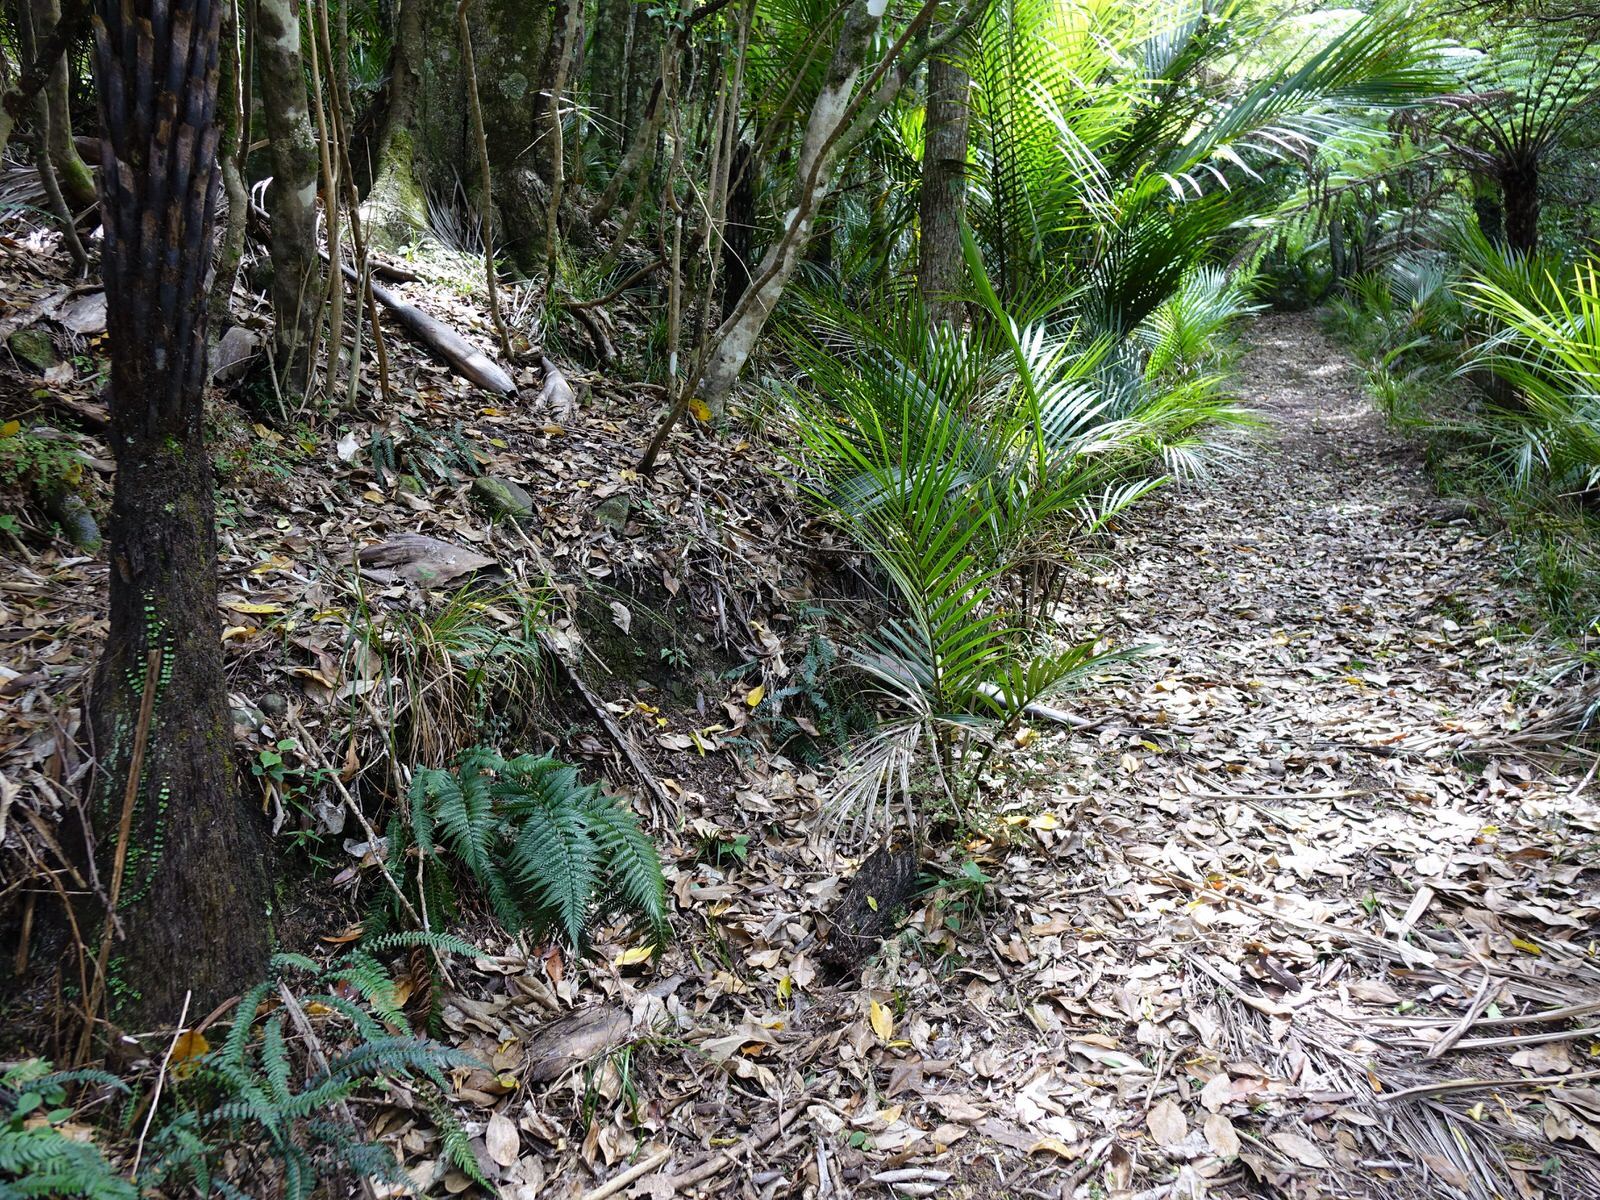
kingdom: Plantae
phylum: Tracheophyta
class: Polypodiopsida
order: Polypodiales
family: Dryopteridaceae
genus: Polystichum
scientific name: Polystichum neozelandicum
